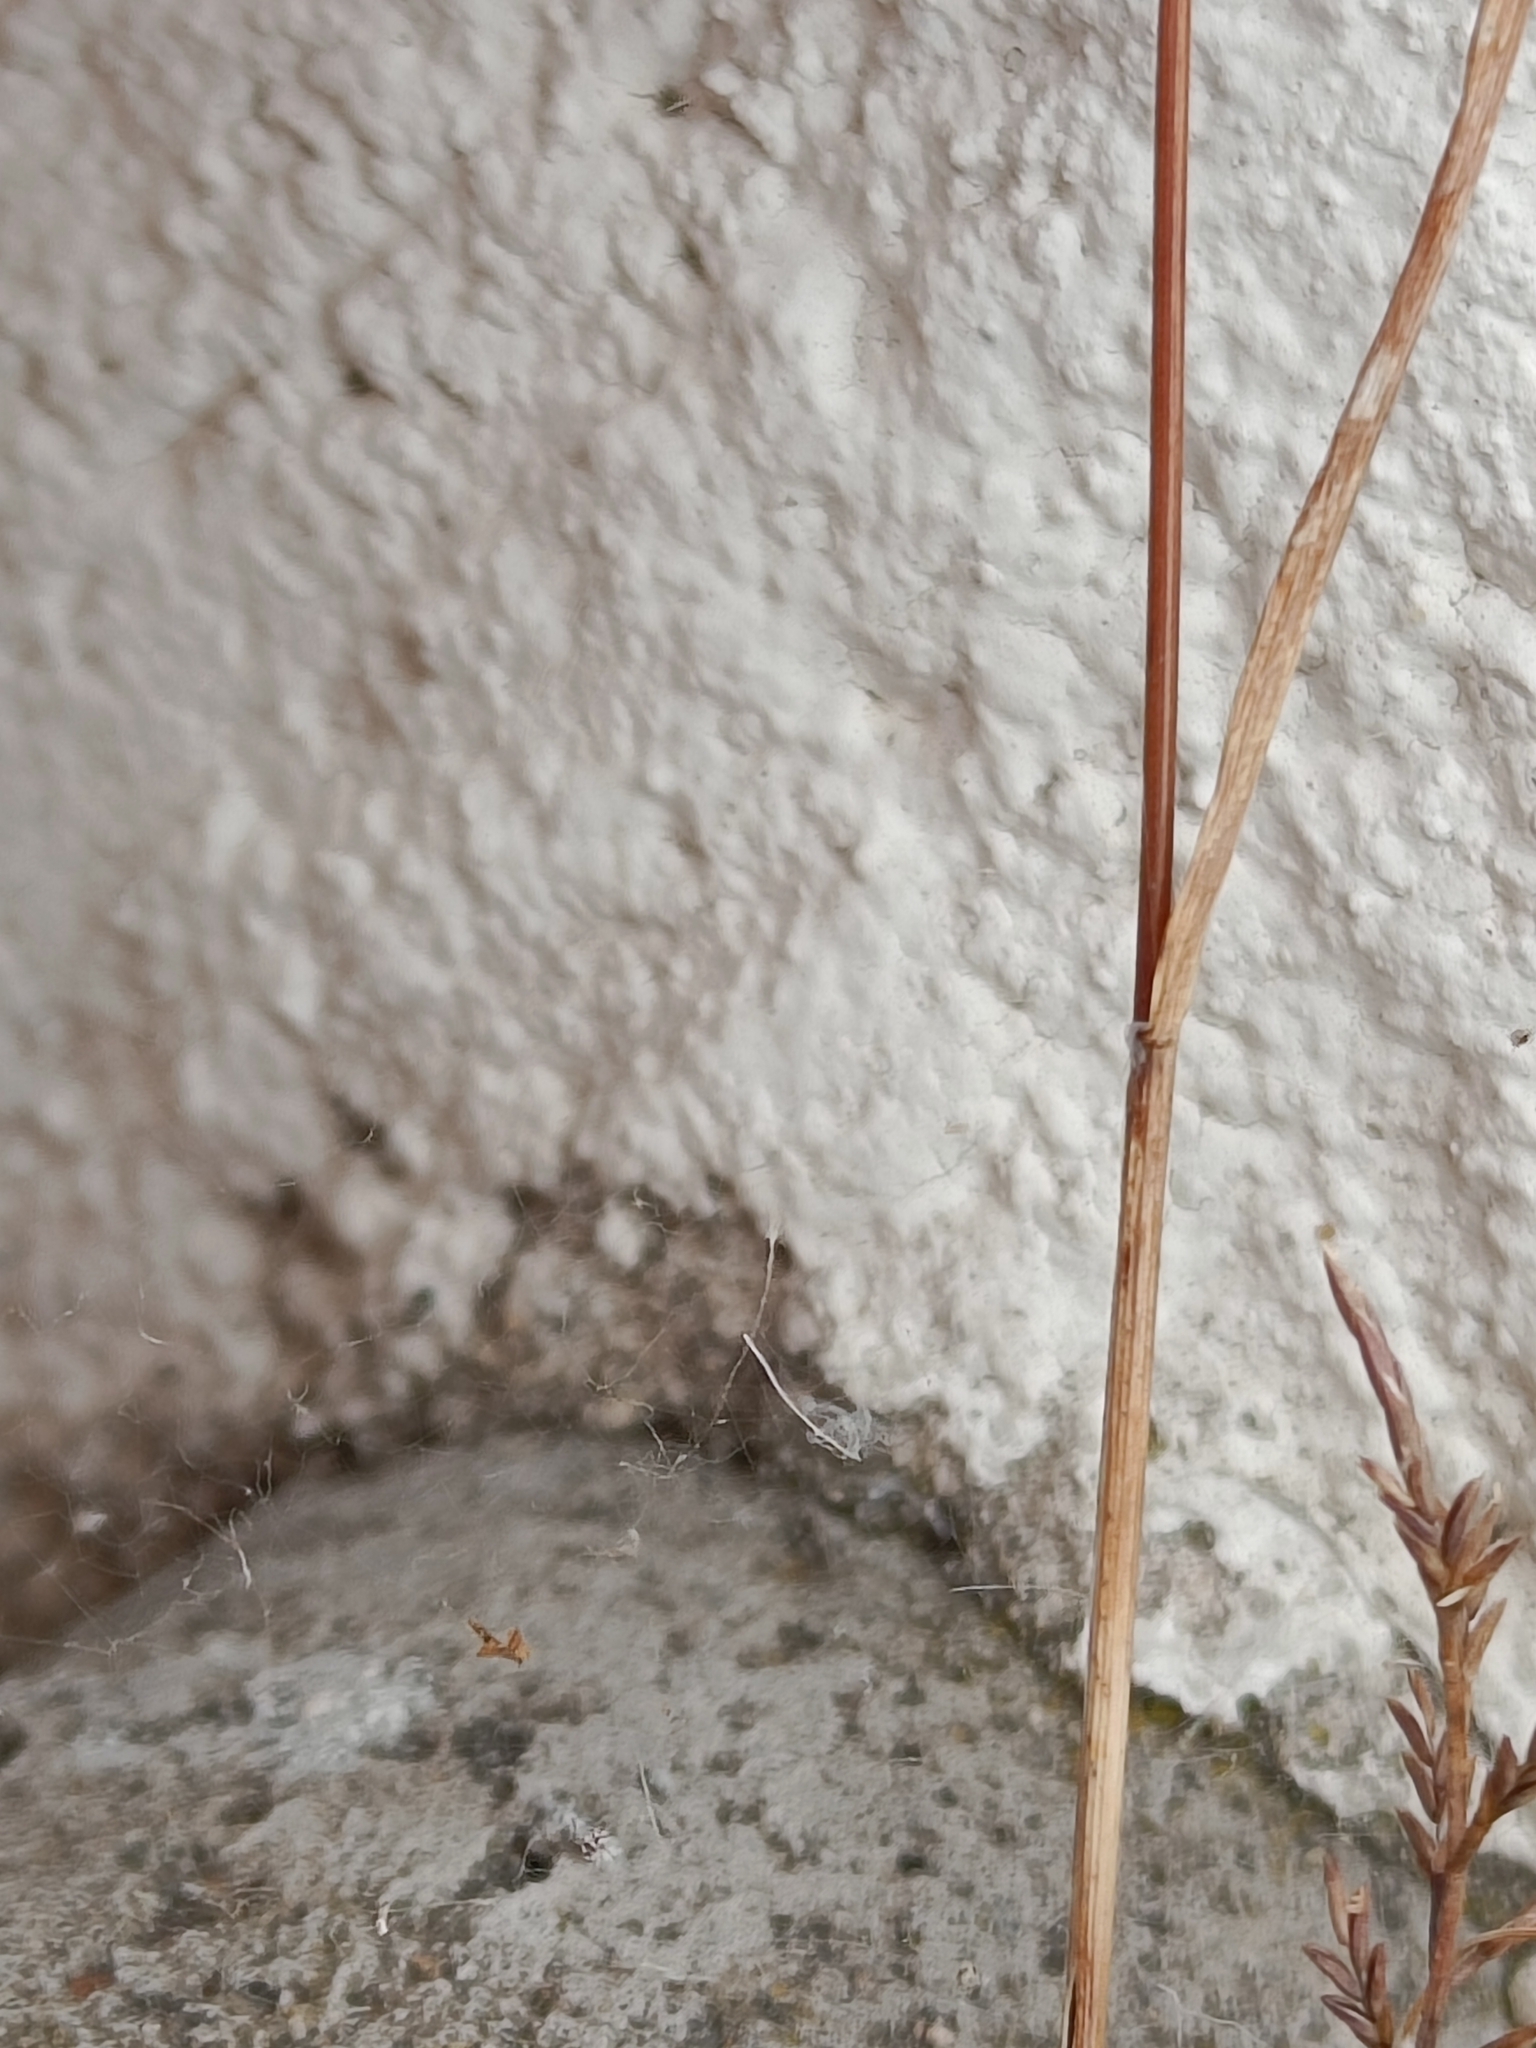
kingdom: Plantae
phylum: Tracheophyta
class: Liliopsida
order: Poales
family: Poaceae
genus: Catapodium
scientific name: Catapodium rigidum
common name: Fern-grass
